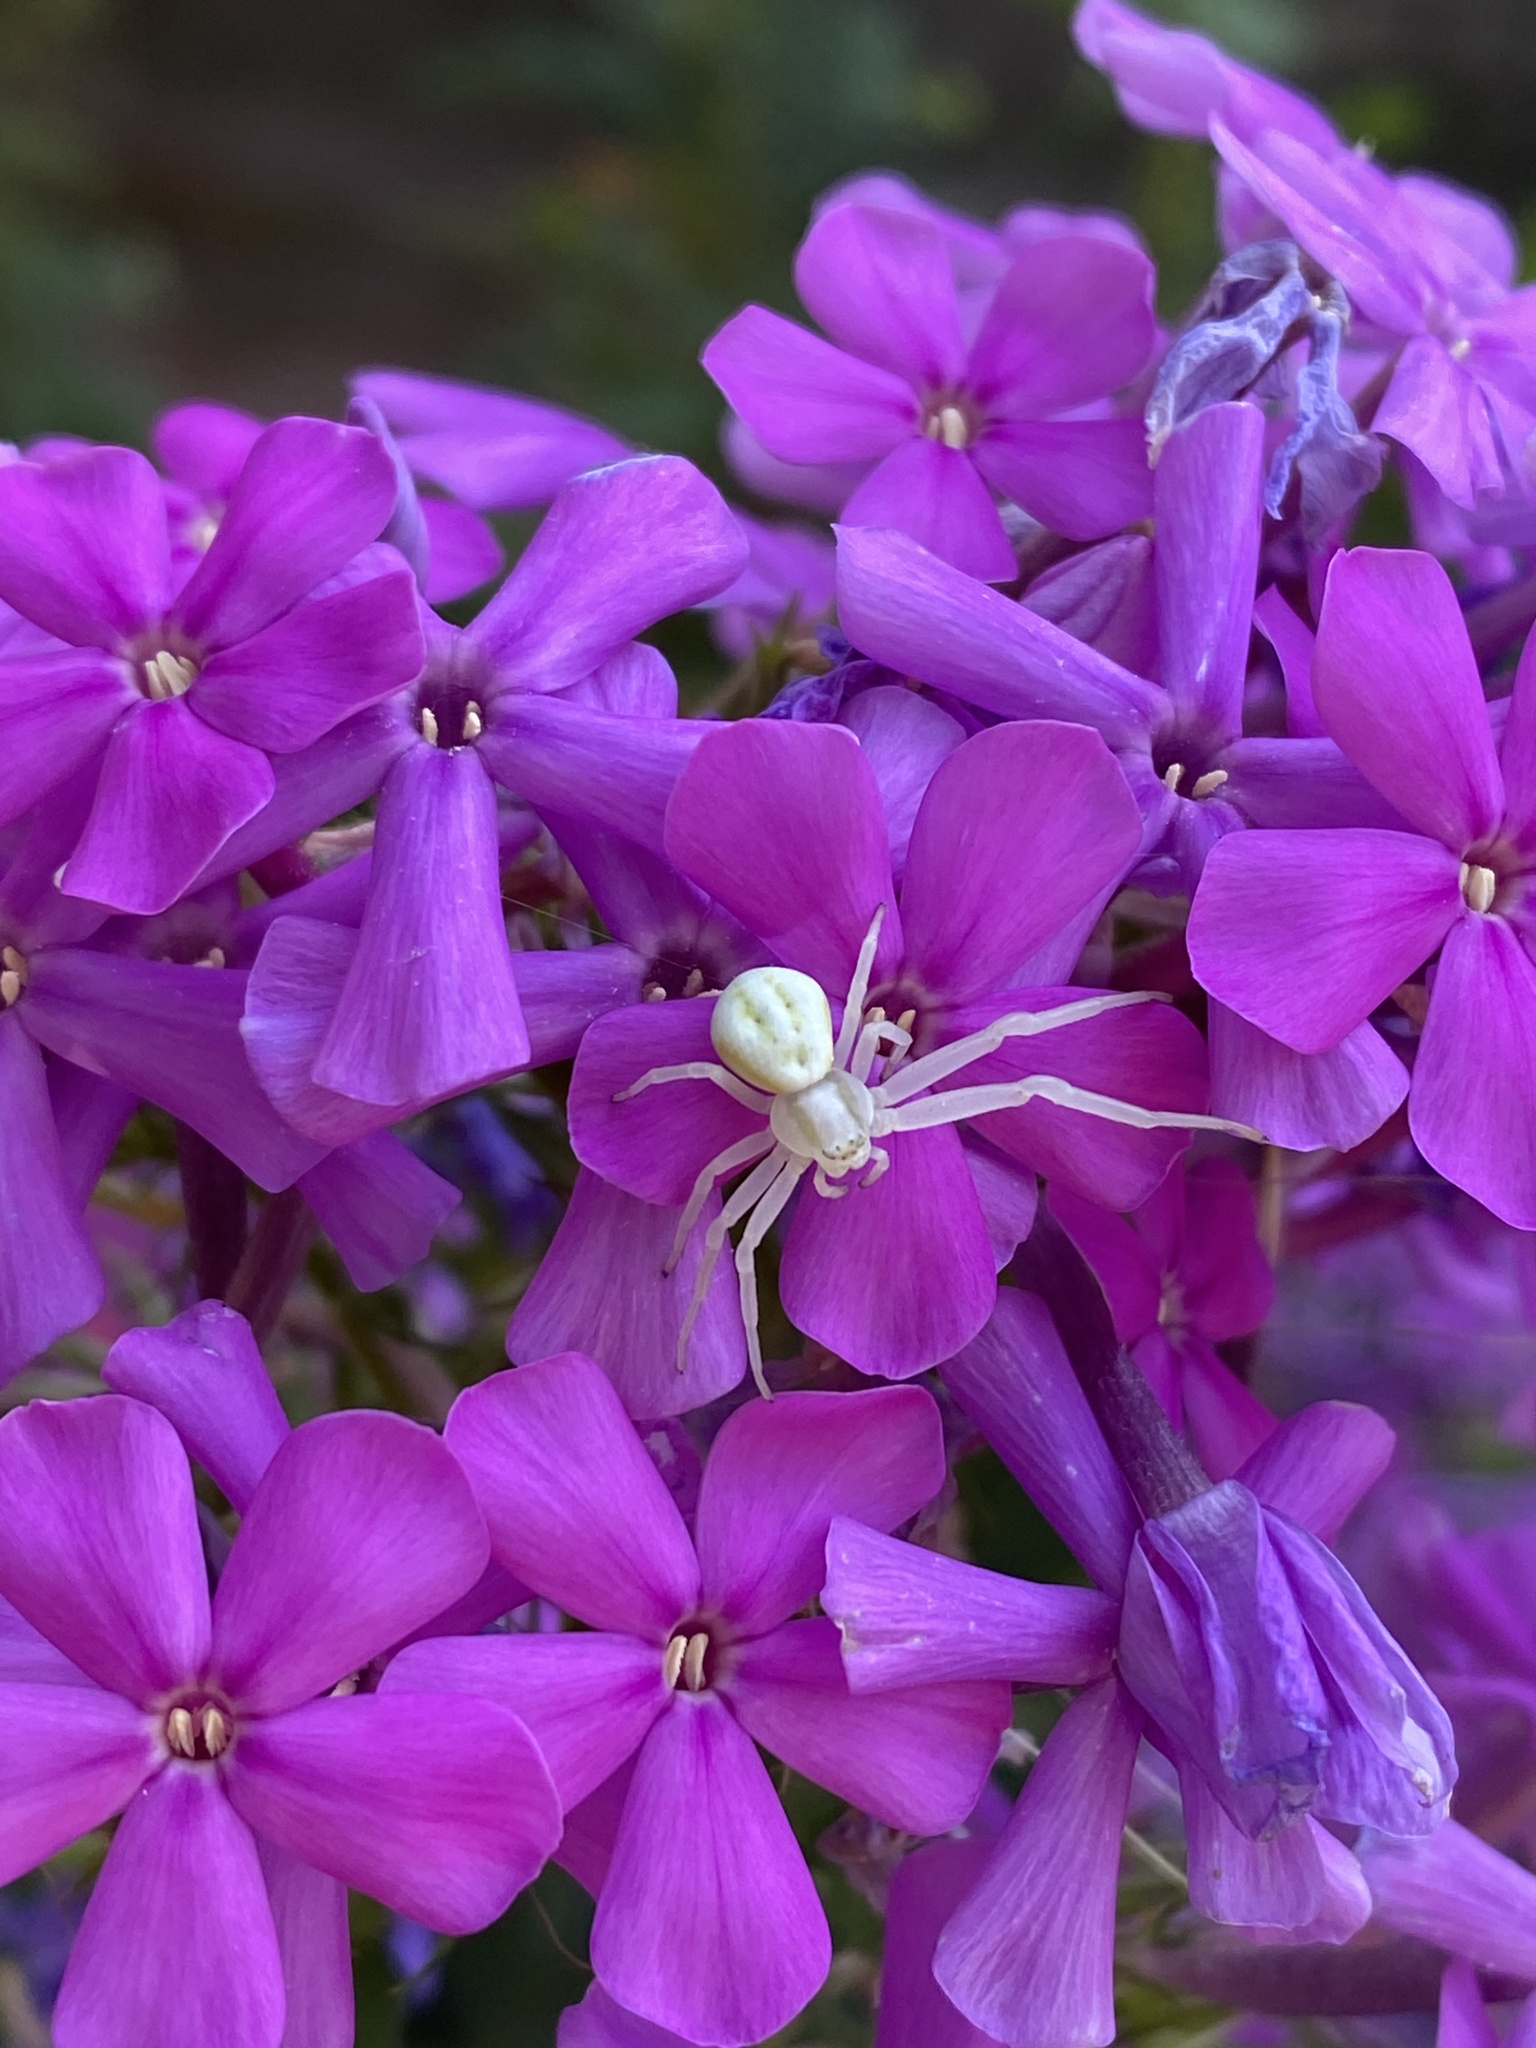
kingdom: Animalia
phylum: Arthropoda
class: Arachnida
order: Araneae
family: Thomisidae
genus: Misumena
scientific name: Misumena vatia
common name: Goldenrod crab spider
